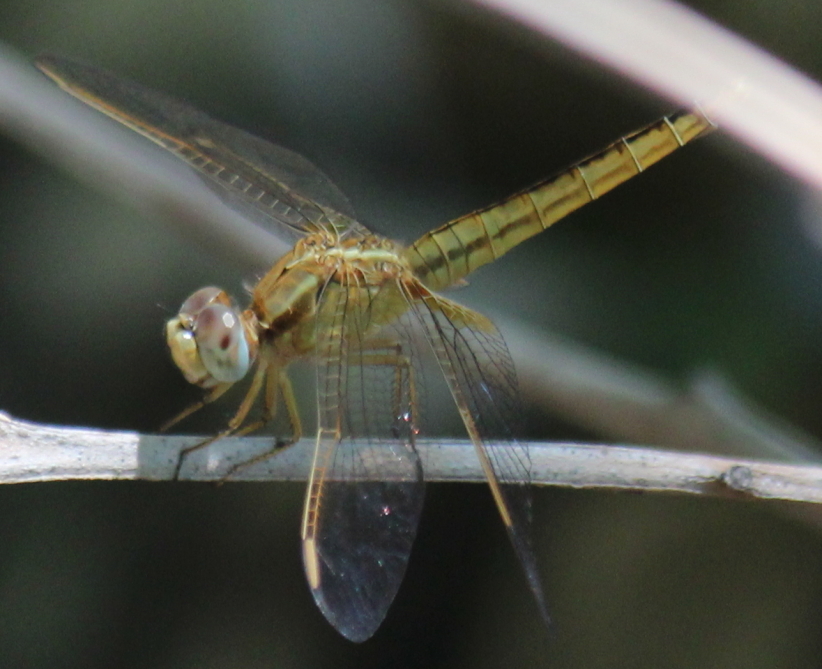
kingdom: Animalia
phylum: Arthropoda
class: Insecta
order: Odonata
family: Libellulidae
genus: Crocothemis
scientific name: Crocothemis erythraea
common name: Scarlet dragonfly
